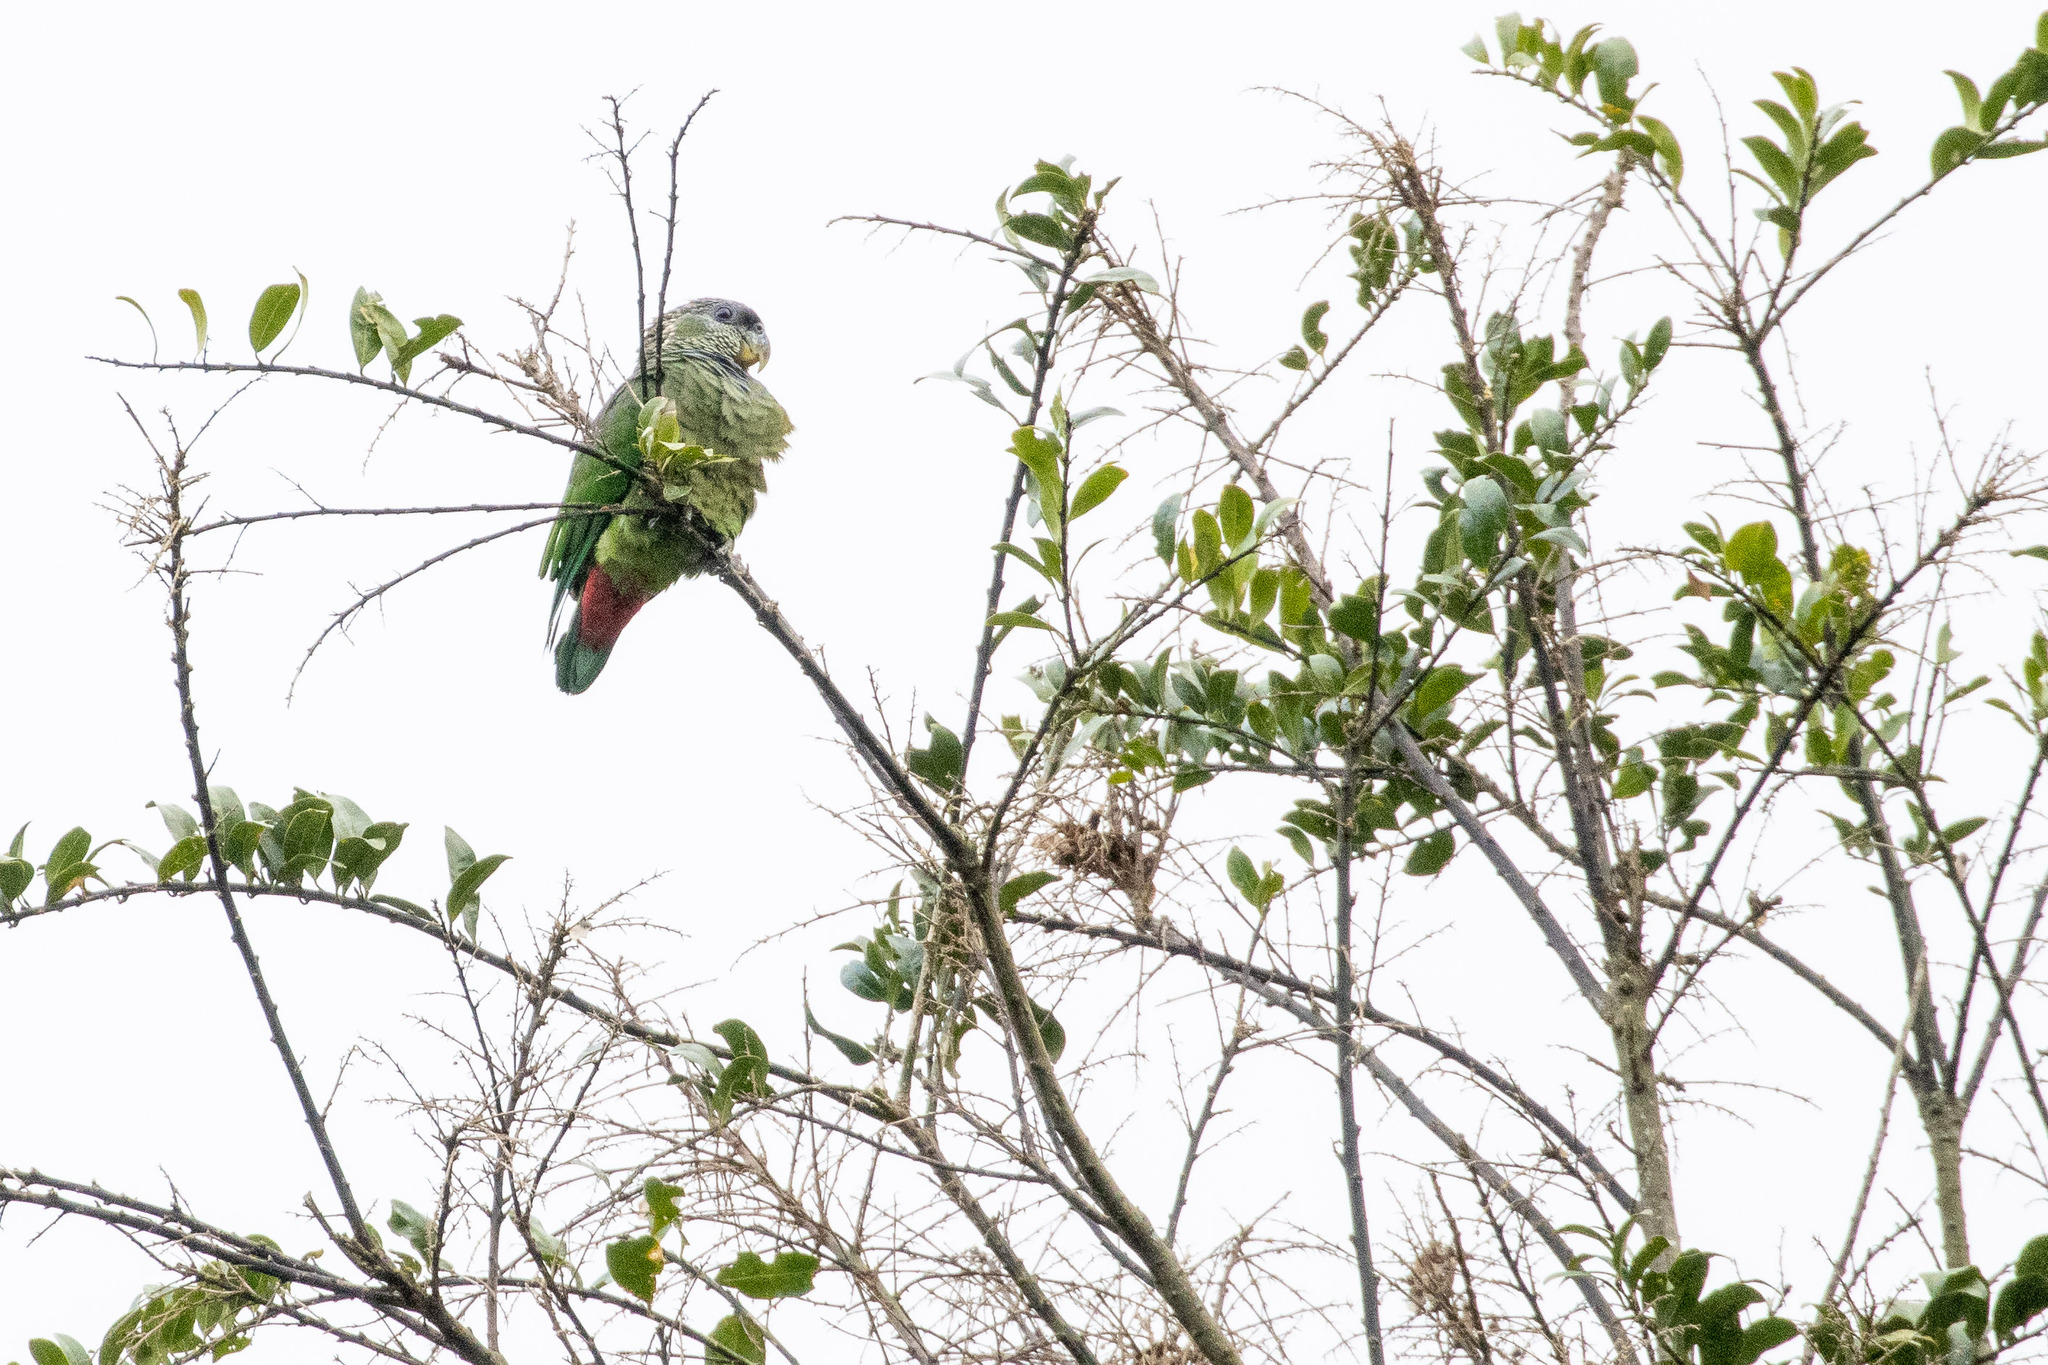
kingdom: Animalia
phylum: Chordata
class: Aves
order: Psittaciformes
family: Psittacidae
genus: Pionus
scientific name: Pionus maximiliani
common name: Scaly-headed parrot
